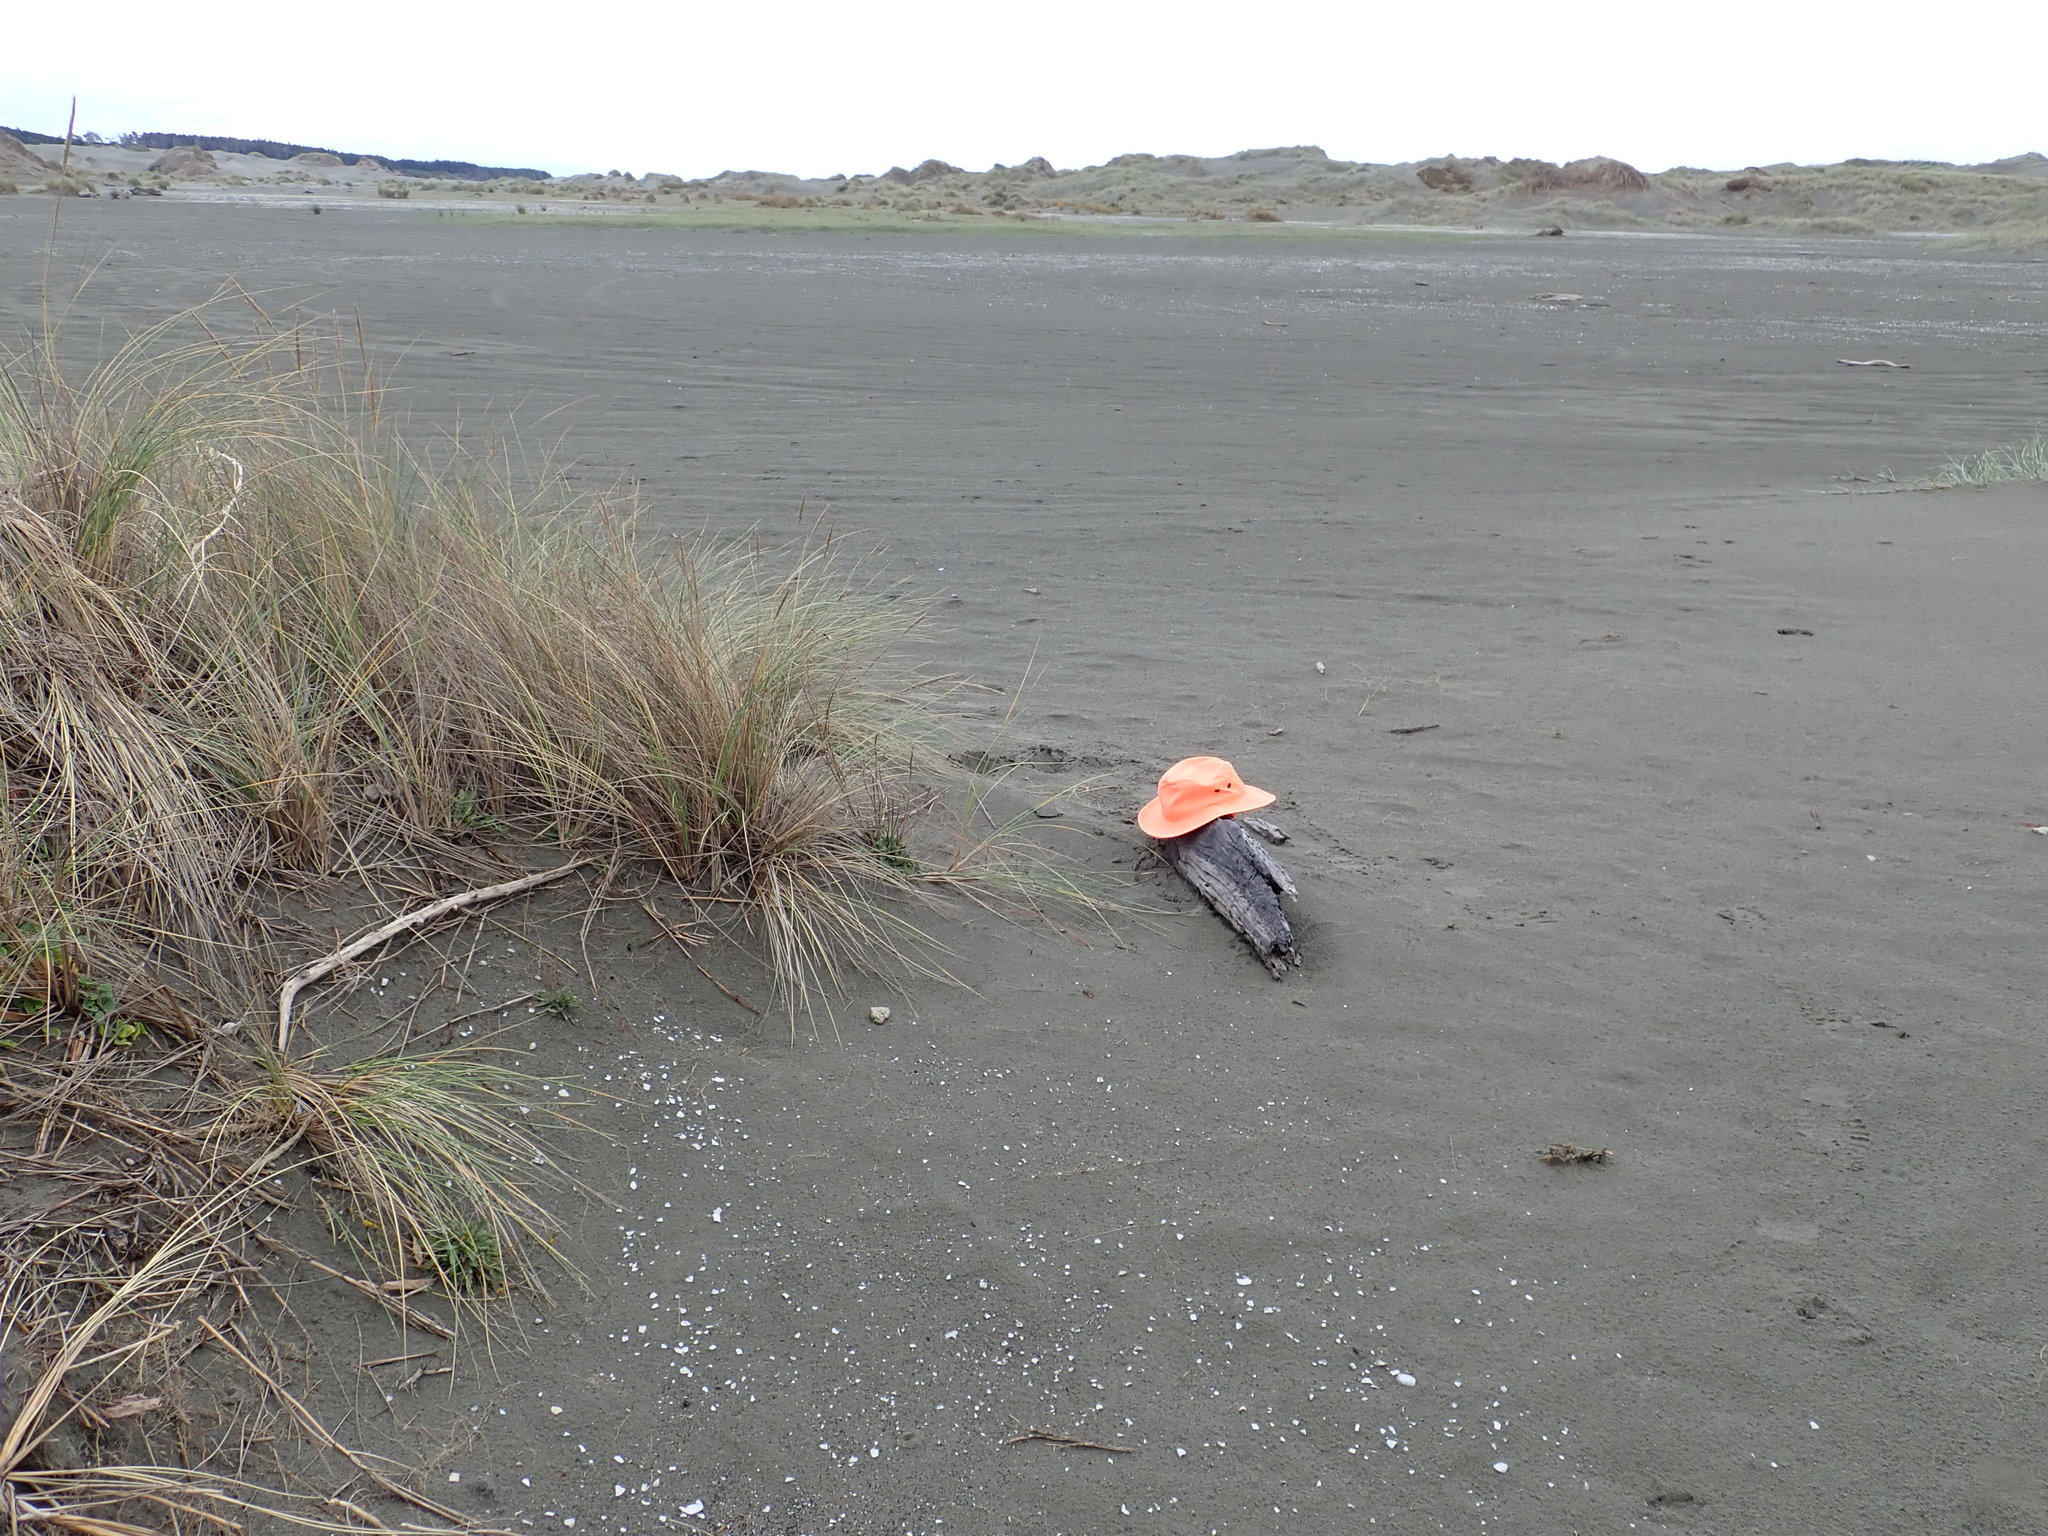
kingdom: Animalia
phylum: Arthropoda
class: Insecta
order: Dermaptera
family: Anisolabididae
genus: Anisolabis
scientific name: Anisolabis littorea
